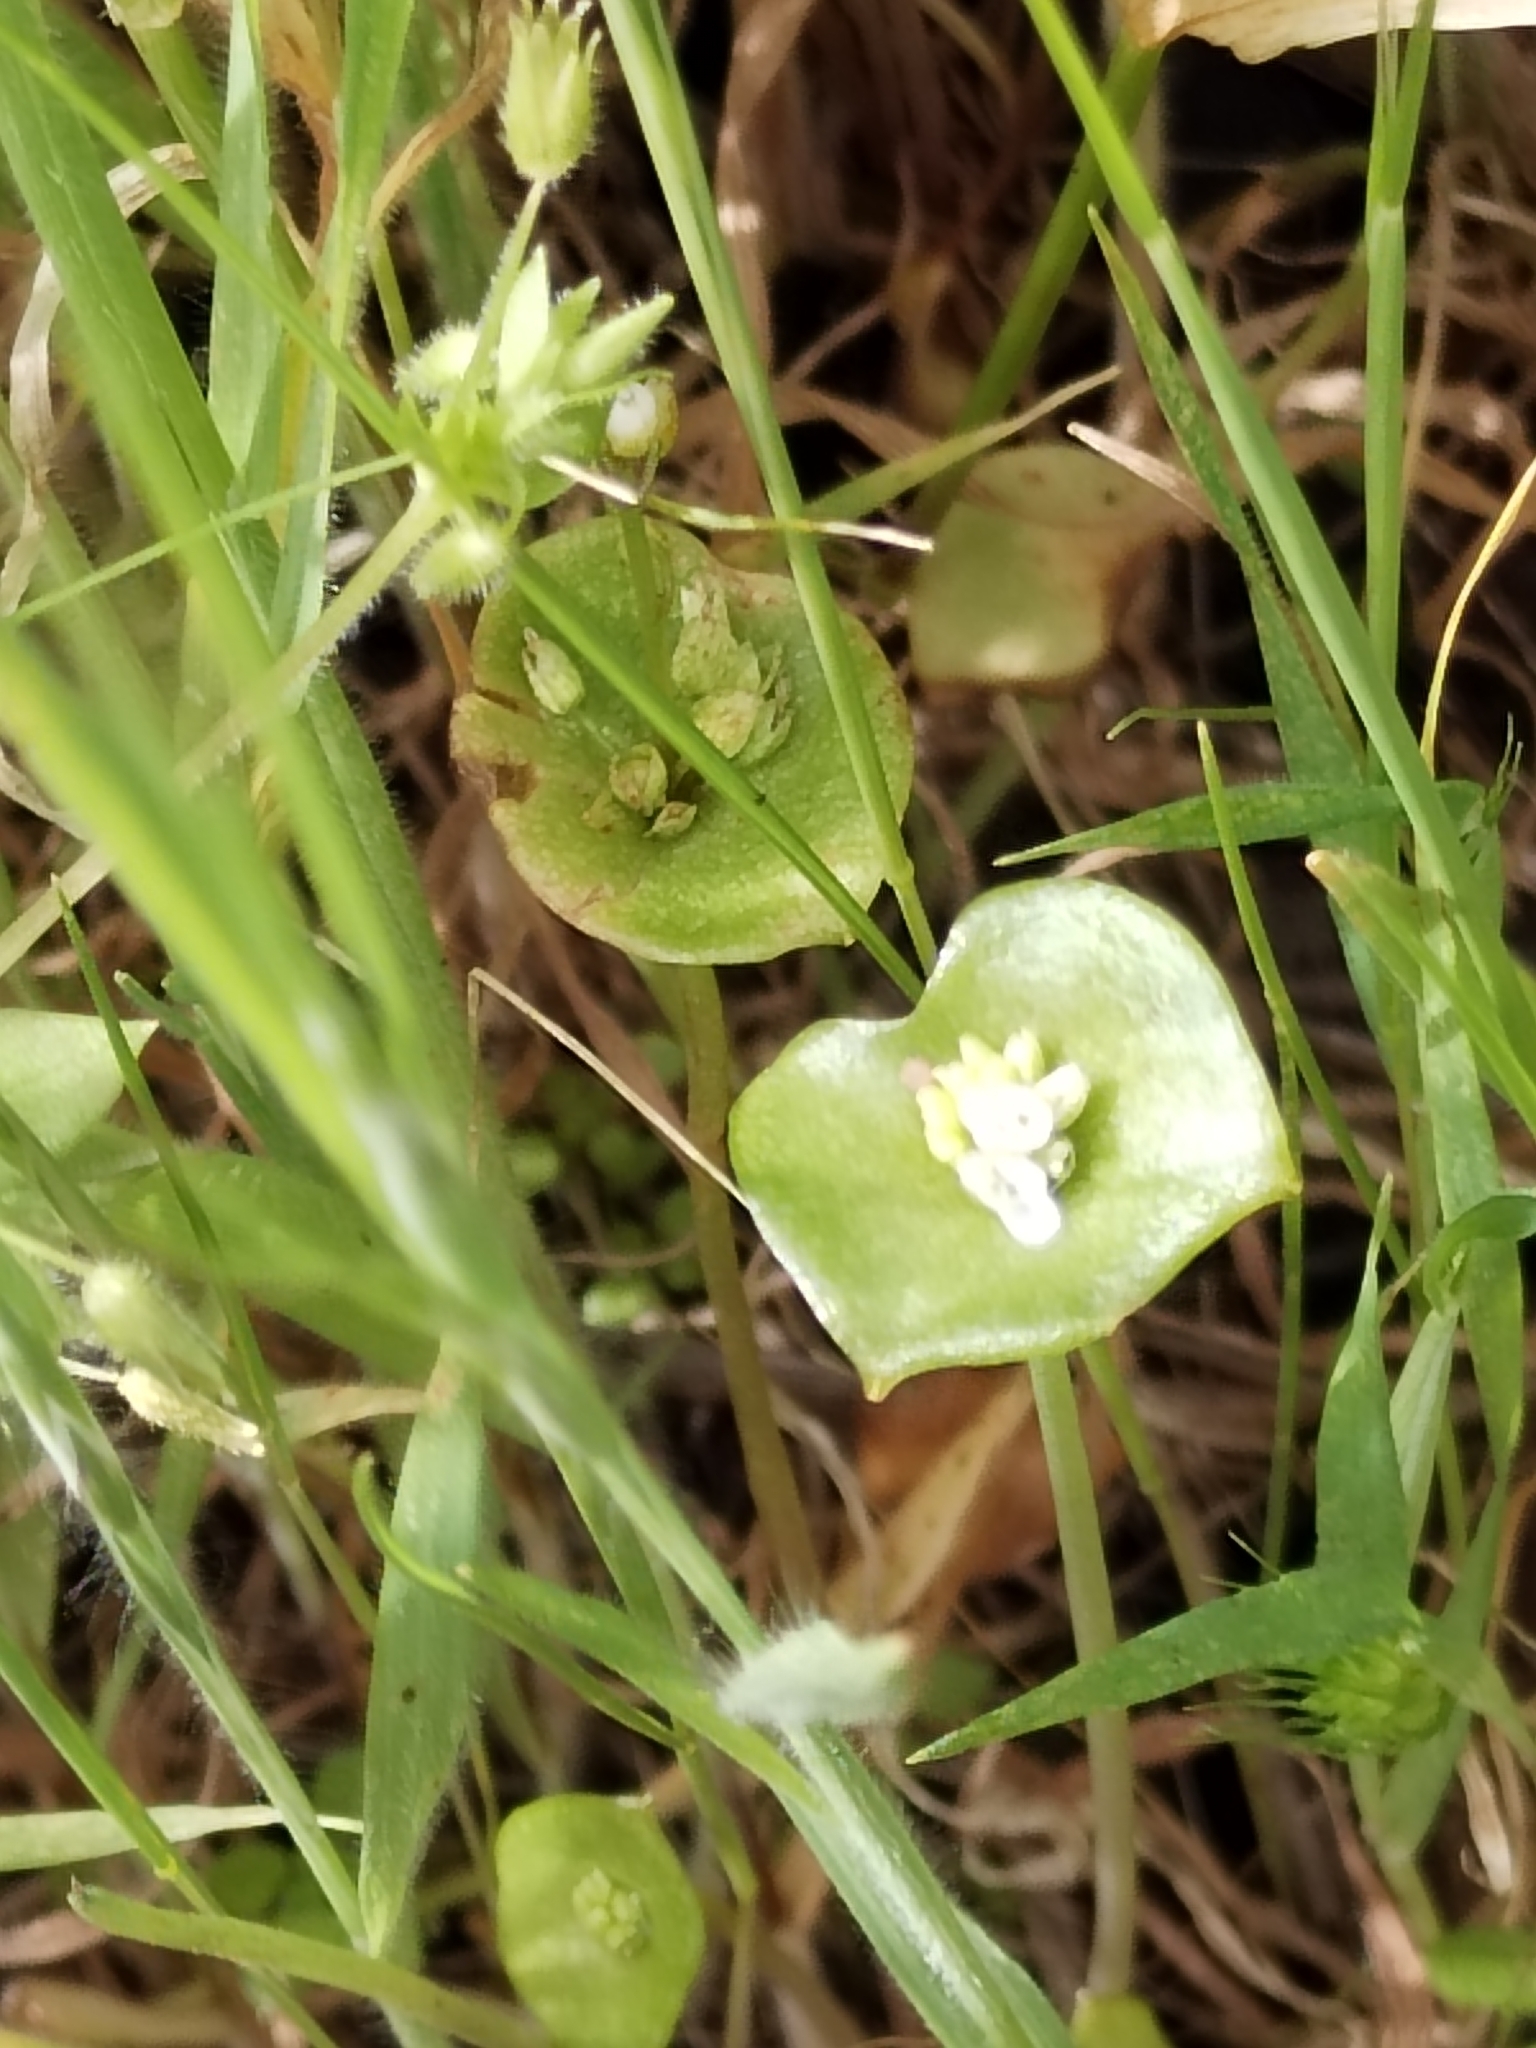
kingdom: Plantae
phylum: Tracheophyta
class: Magnoliopsida
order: Caryophyllales
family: Montiaceae
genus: Claytonia
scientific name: Claytonia perfoliata
